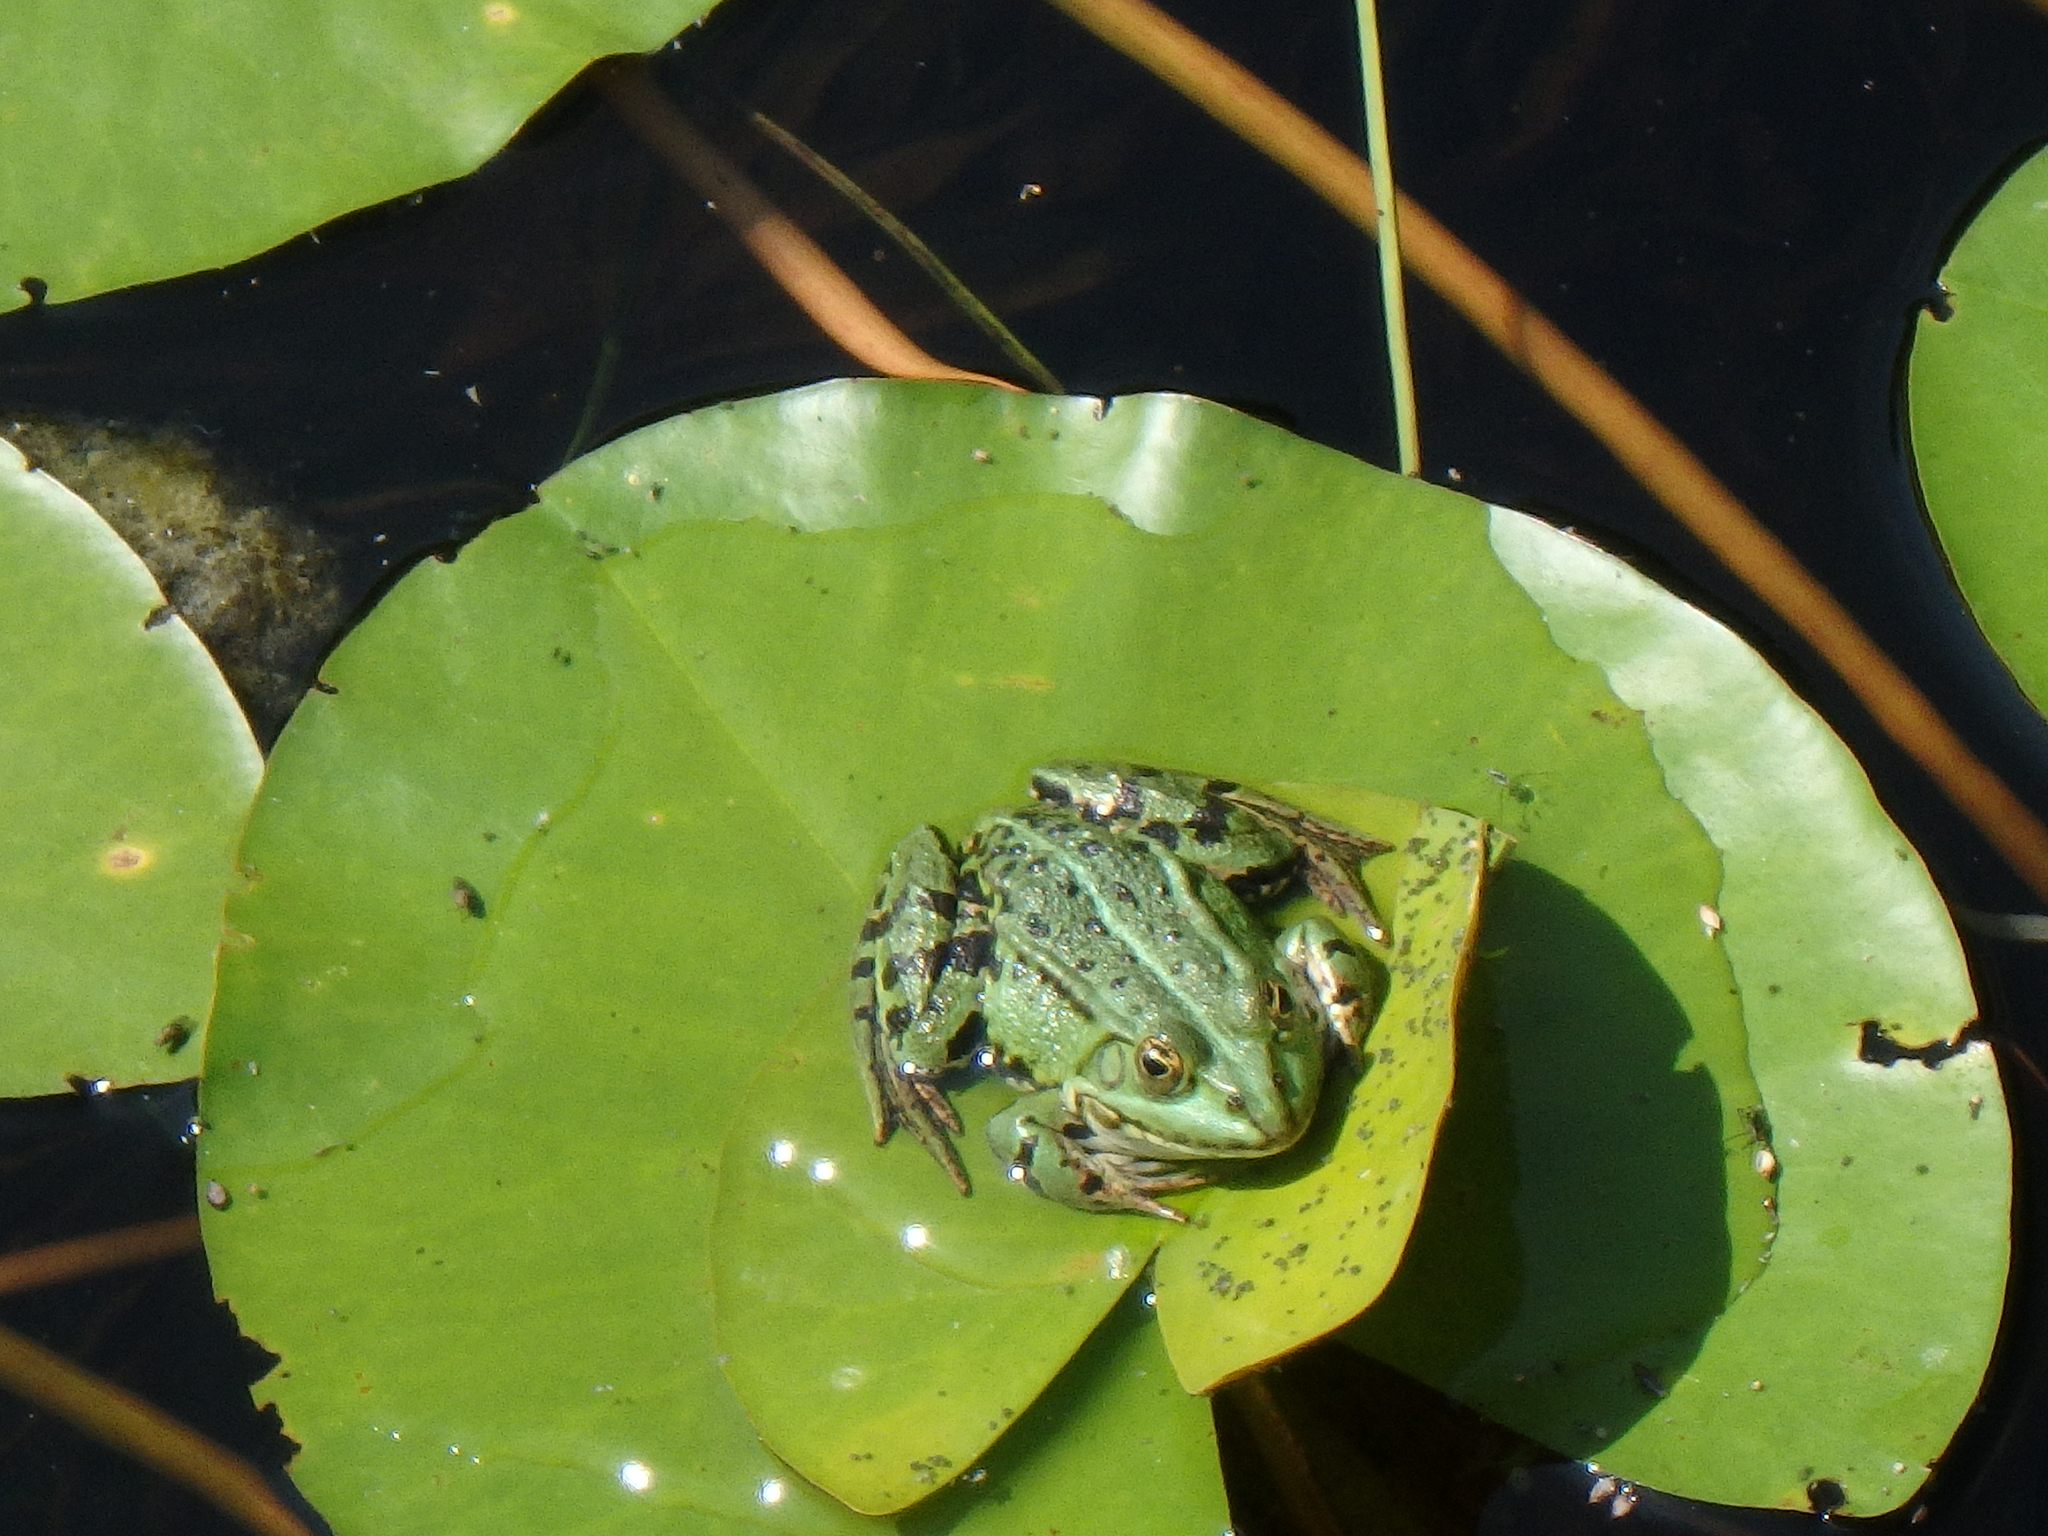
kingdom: Animalia
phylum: Chordata
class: Amphibia
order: Anura
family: Ranidae
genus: Pelophylax
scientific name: Pelophylax
